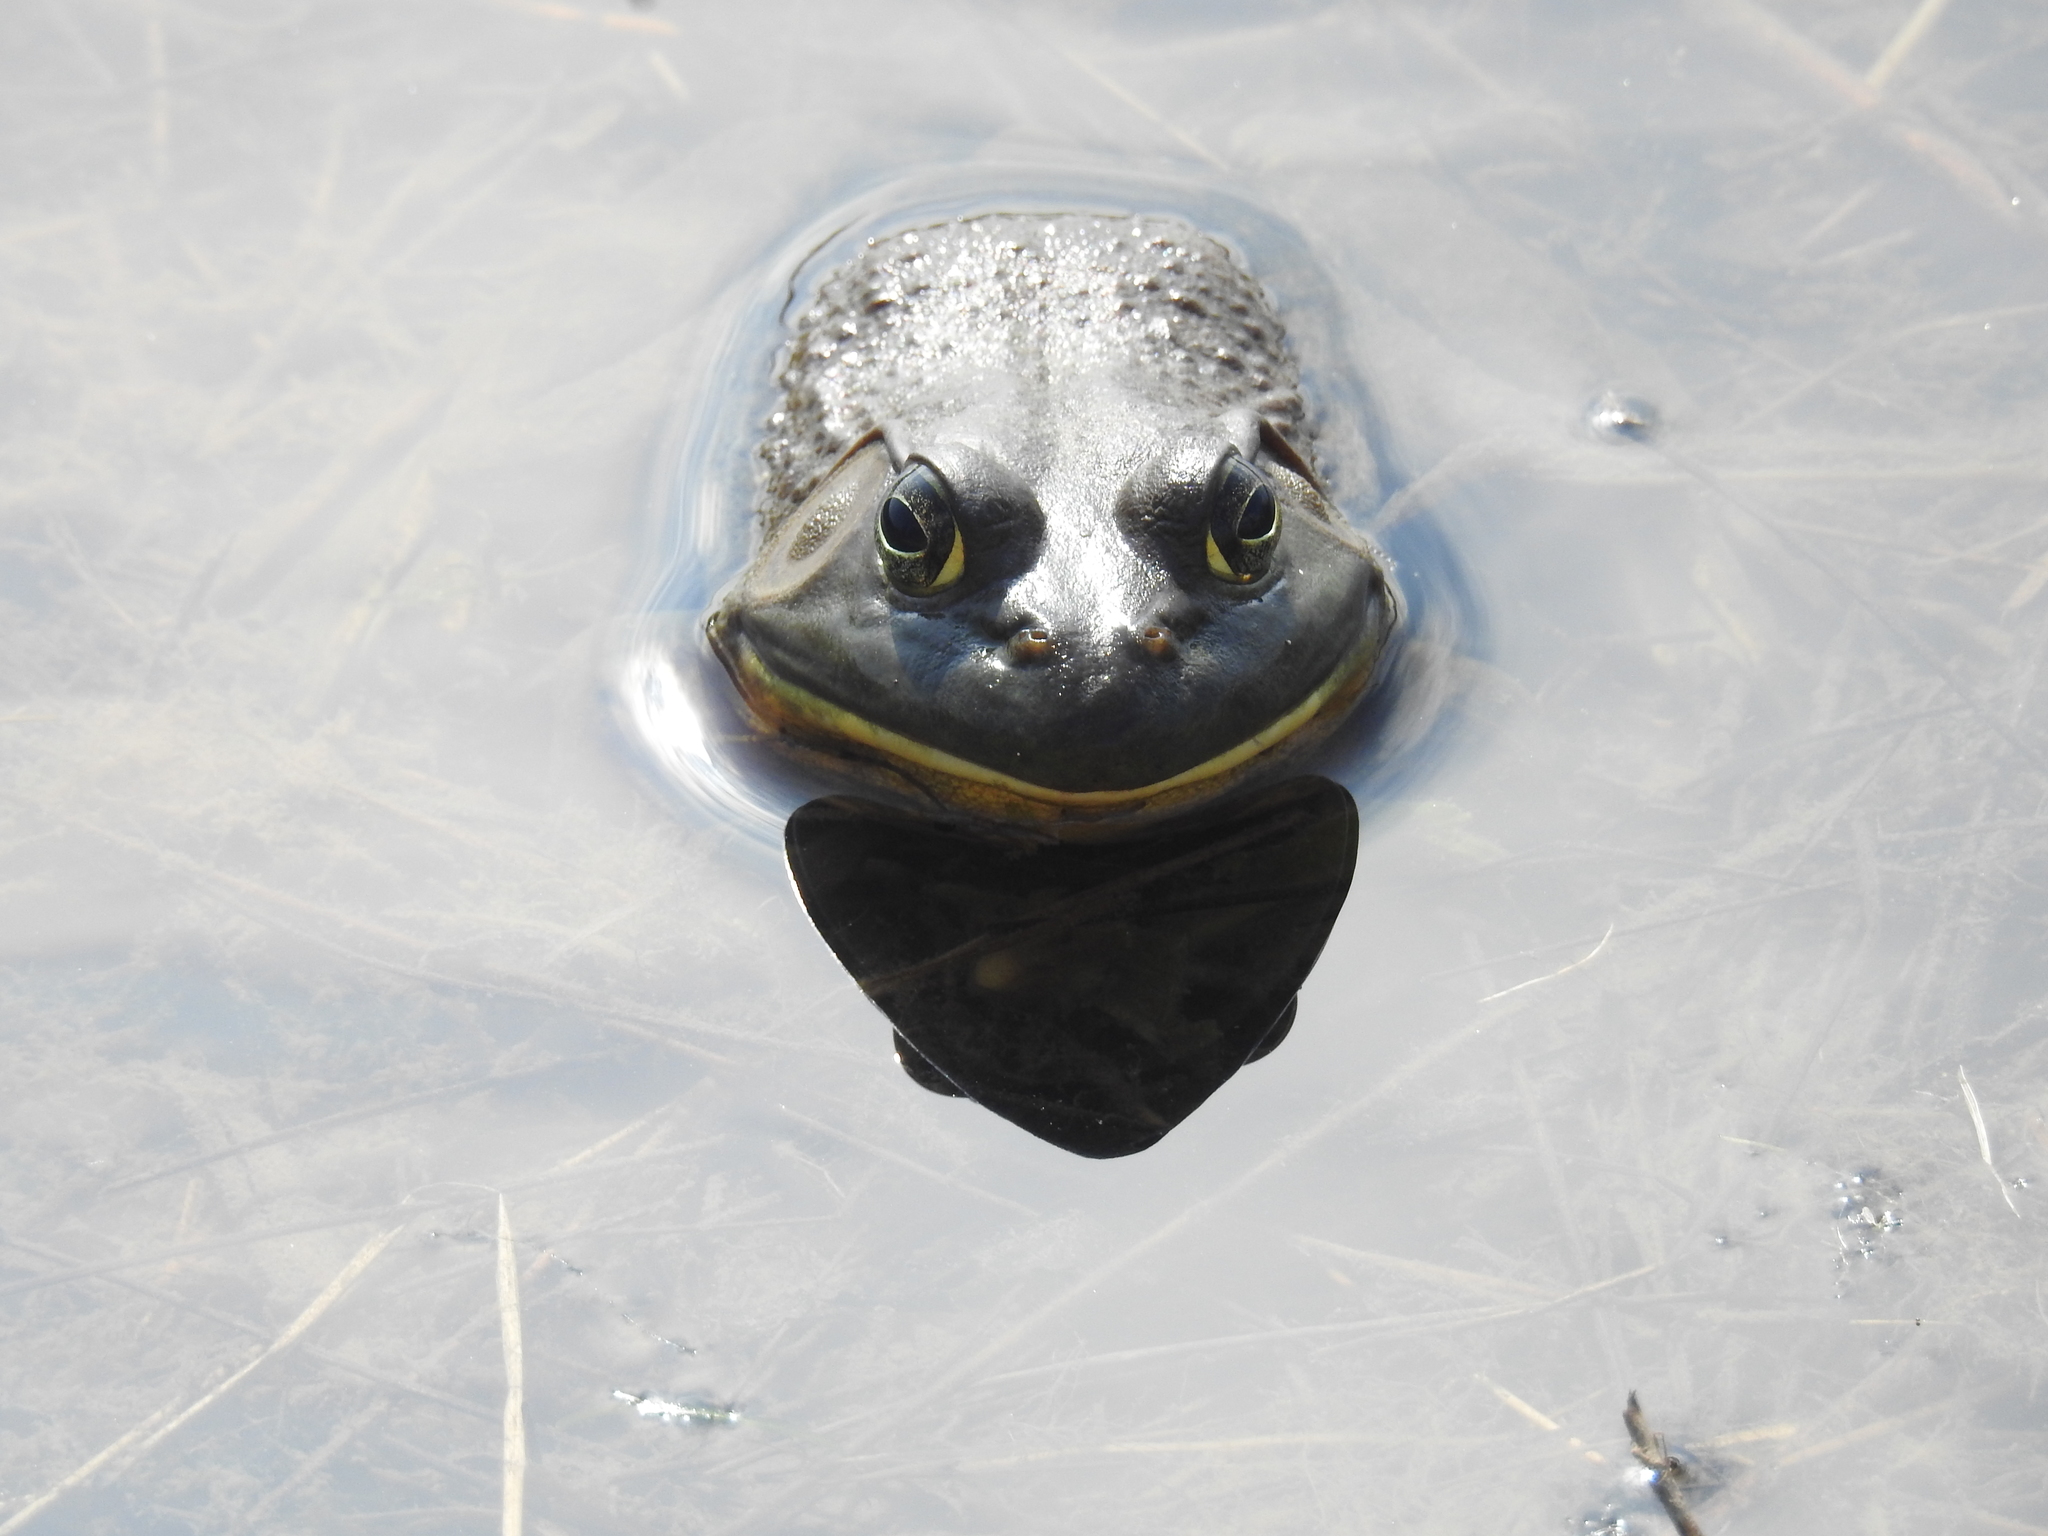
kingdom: Animalia
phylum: Chordata
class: Amphibia
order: Anura
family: Ranidae
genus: Lithobates
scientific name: Lithobates catesbeianus
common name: American bullfrog
